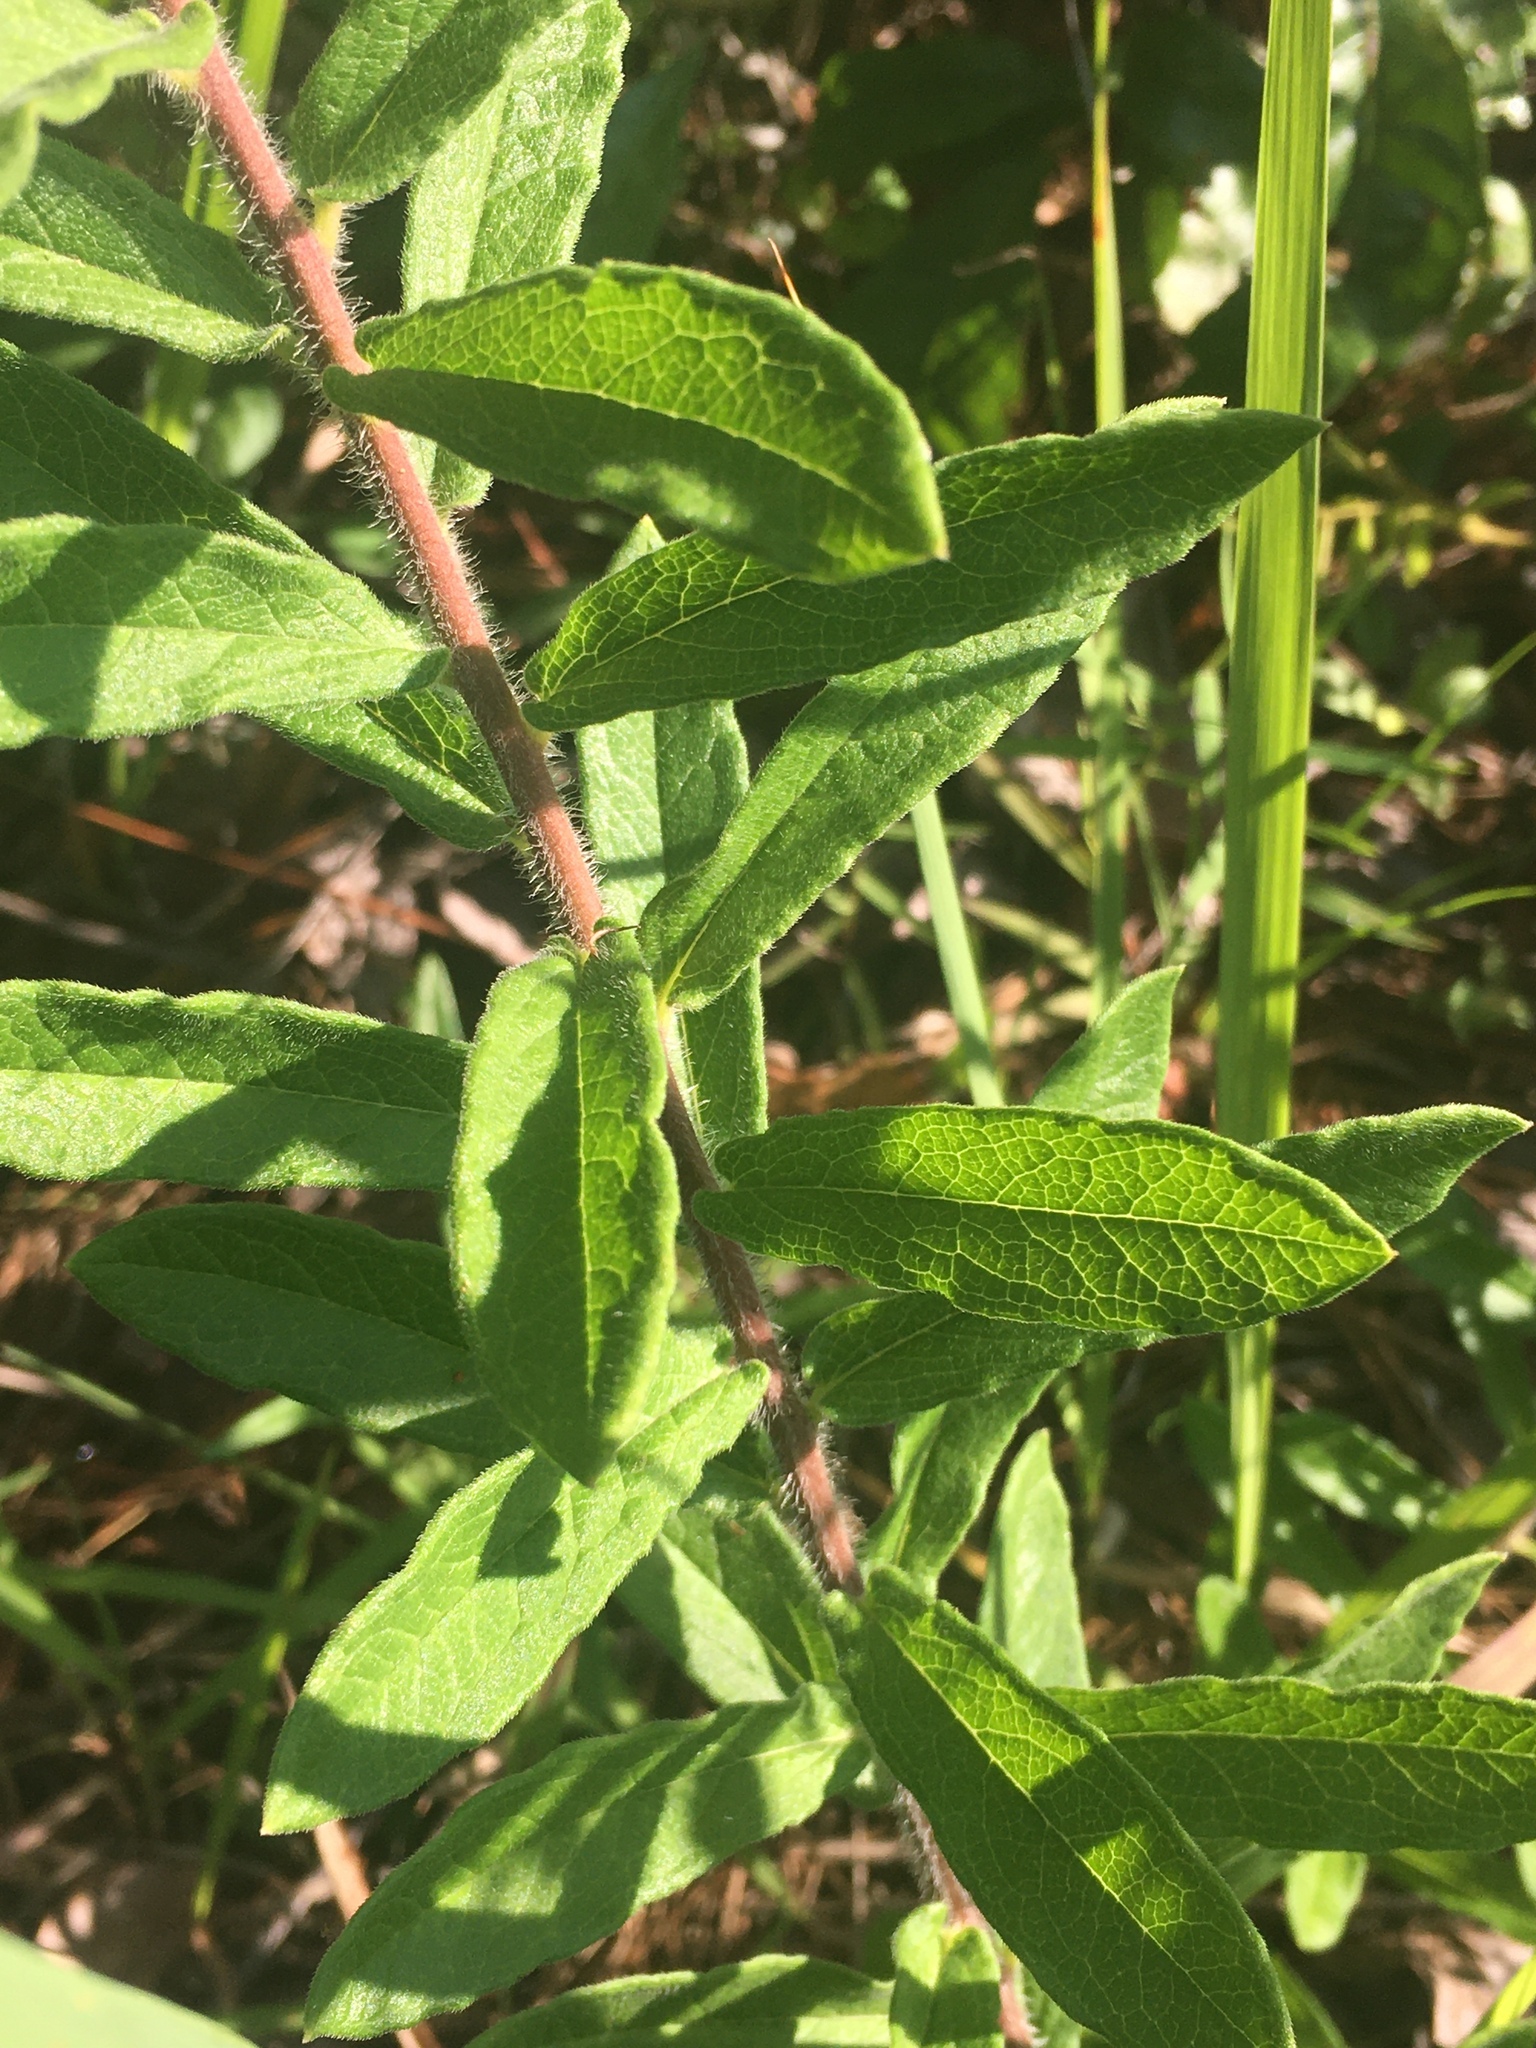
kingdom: Plantae
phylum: Tracheophyta
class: Magnoliopsida
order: Gentianales
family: Apocynaceae
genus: Asclepias
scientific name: Asclepias tuberosa
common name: Butterfly milkweed
